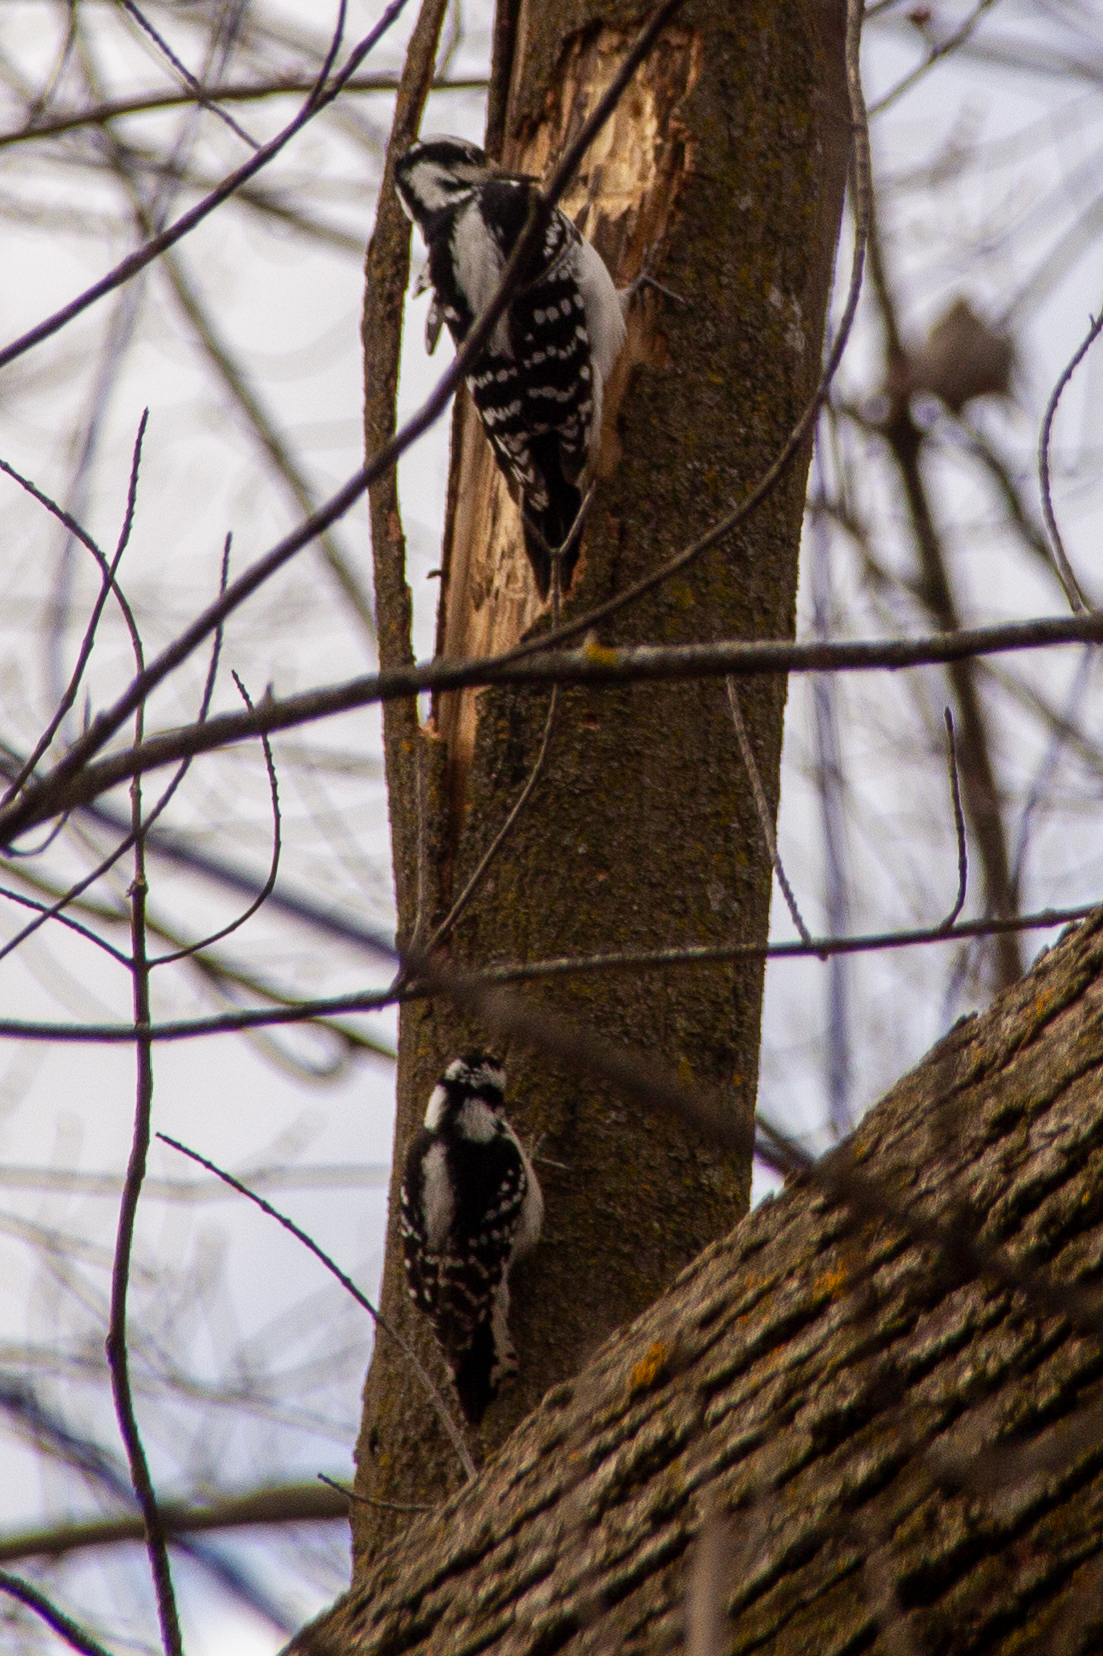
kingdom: Animalia
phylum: Chordata
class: Aves
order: Piciformes
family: Picidae
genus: Leuconotopicus
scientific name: Leuconotopicus villosus
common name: Hairy woodpecker
